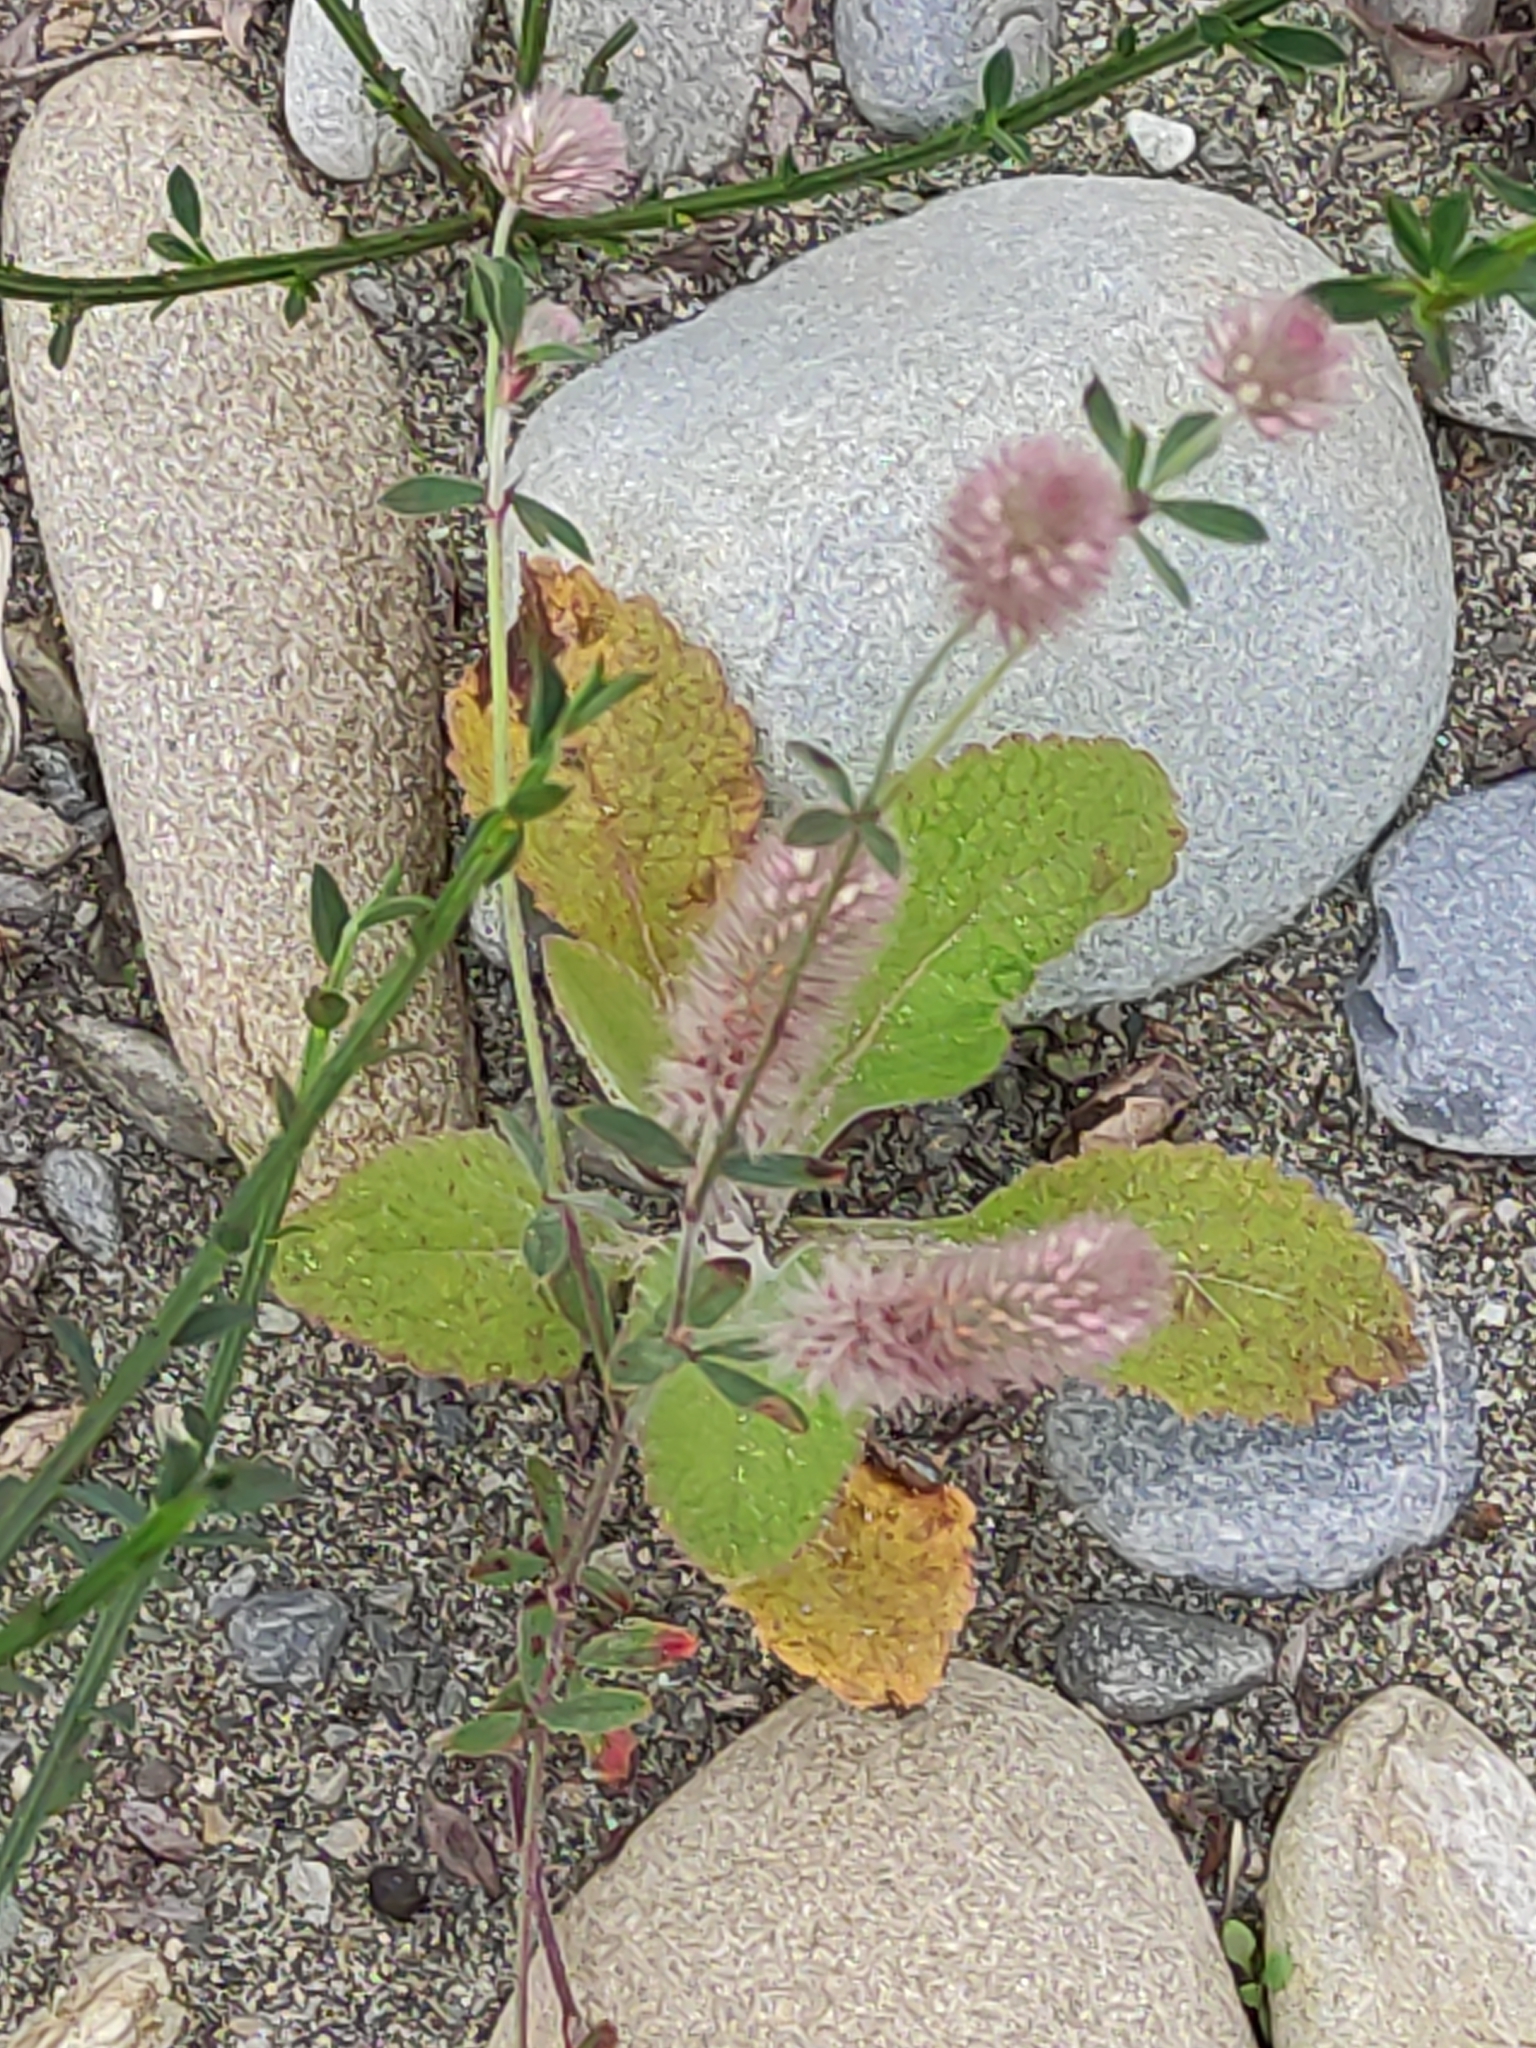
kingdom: Plantae
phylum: Tracheophyta
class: Magnoliopsida
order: Fabales
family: Fabaceae
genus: Trifolium
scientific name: Trifolium arvense
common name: Hare's-foot clover
